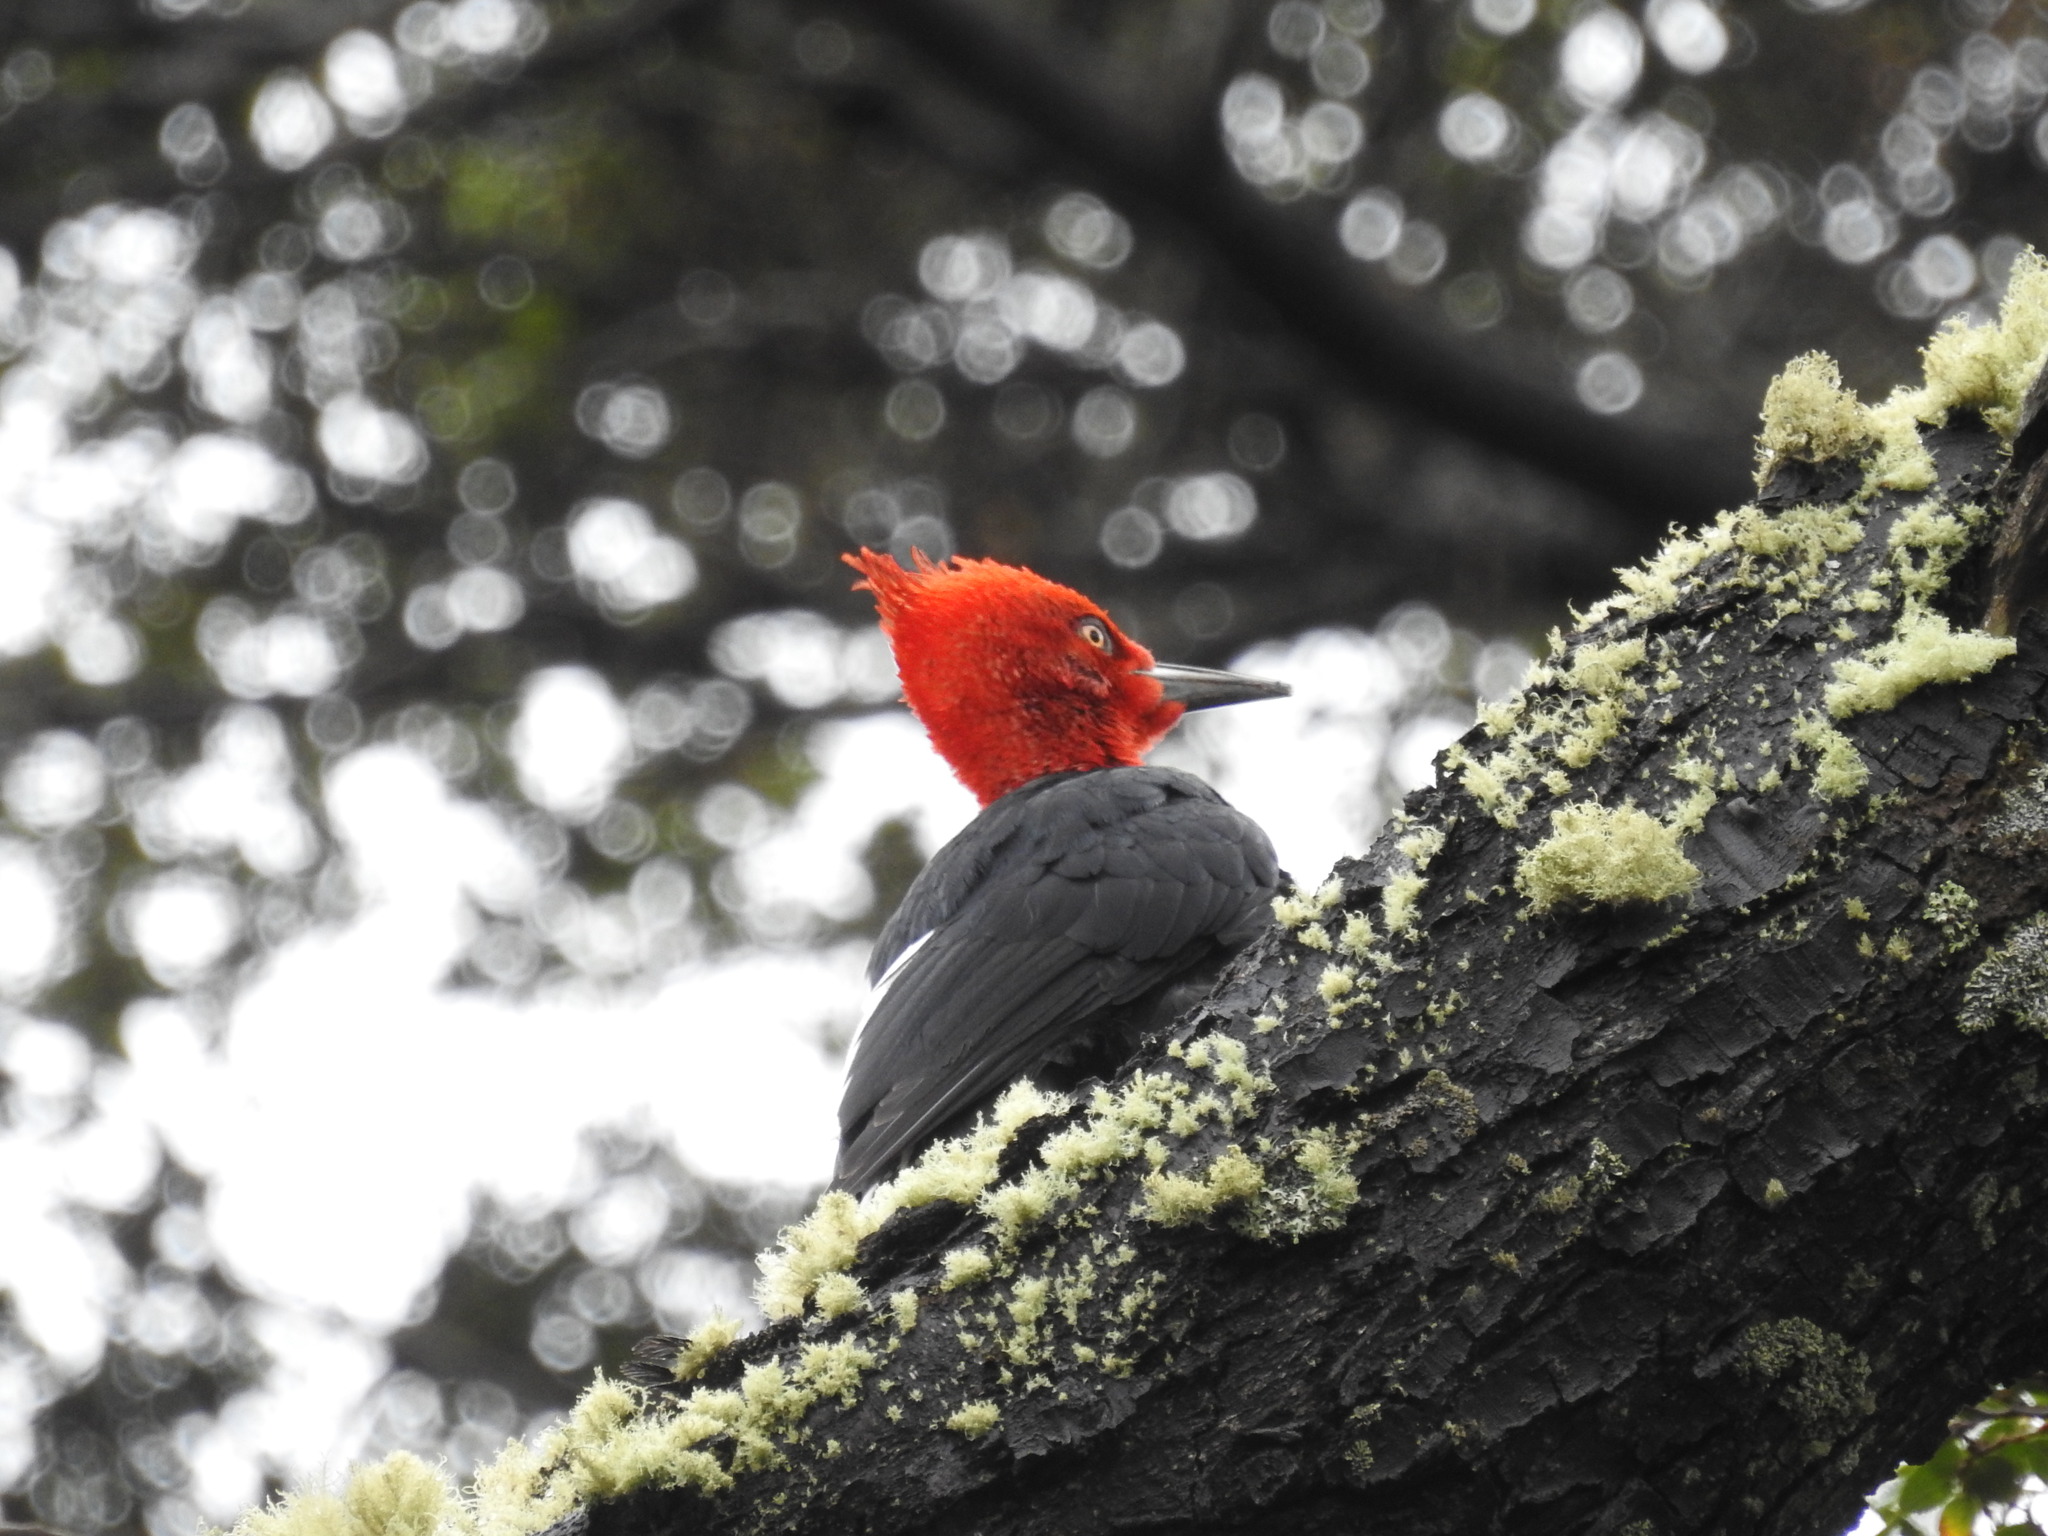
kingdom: Animalia
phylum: Chordata
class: Aves
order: Piciformes
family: Picidae
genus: Campephilus
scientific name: Campephilus magellanicus
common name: Magellanic woodpecker
